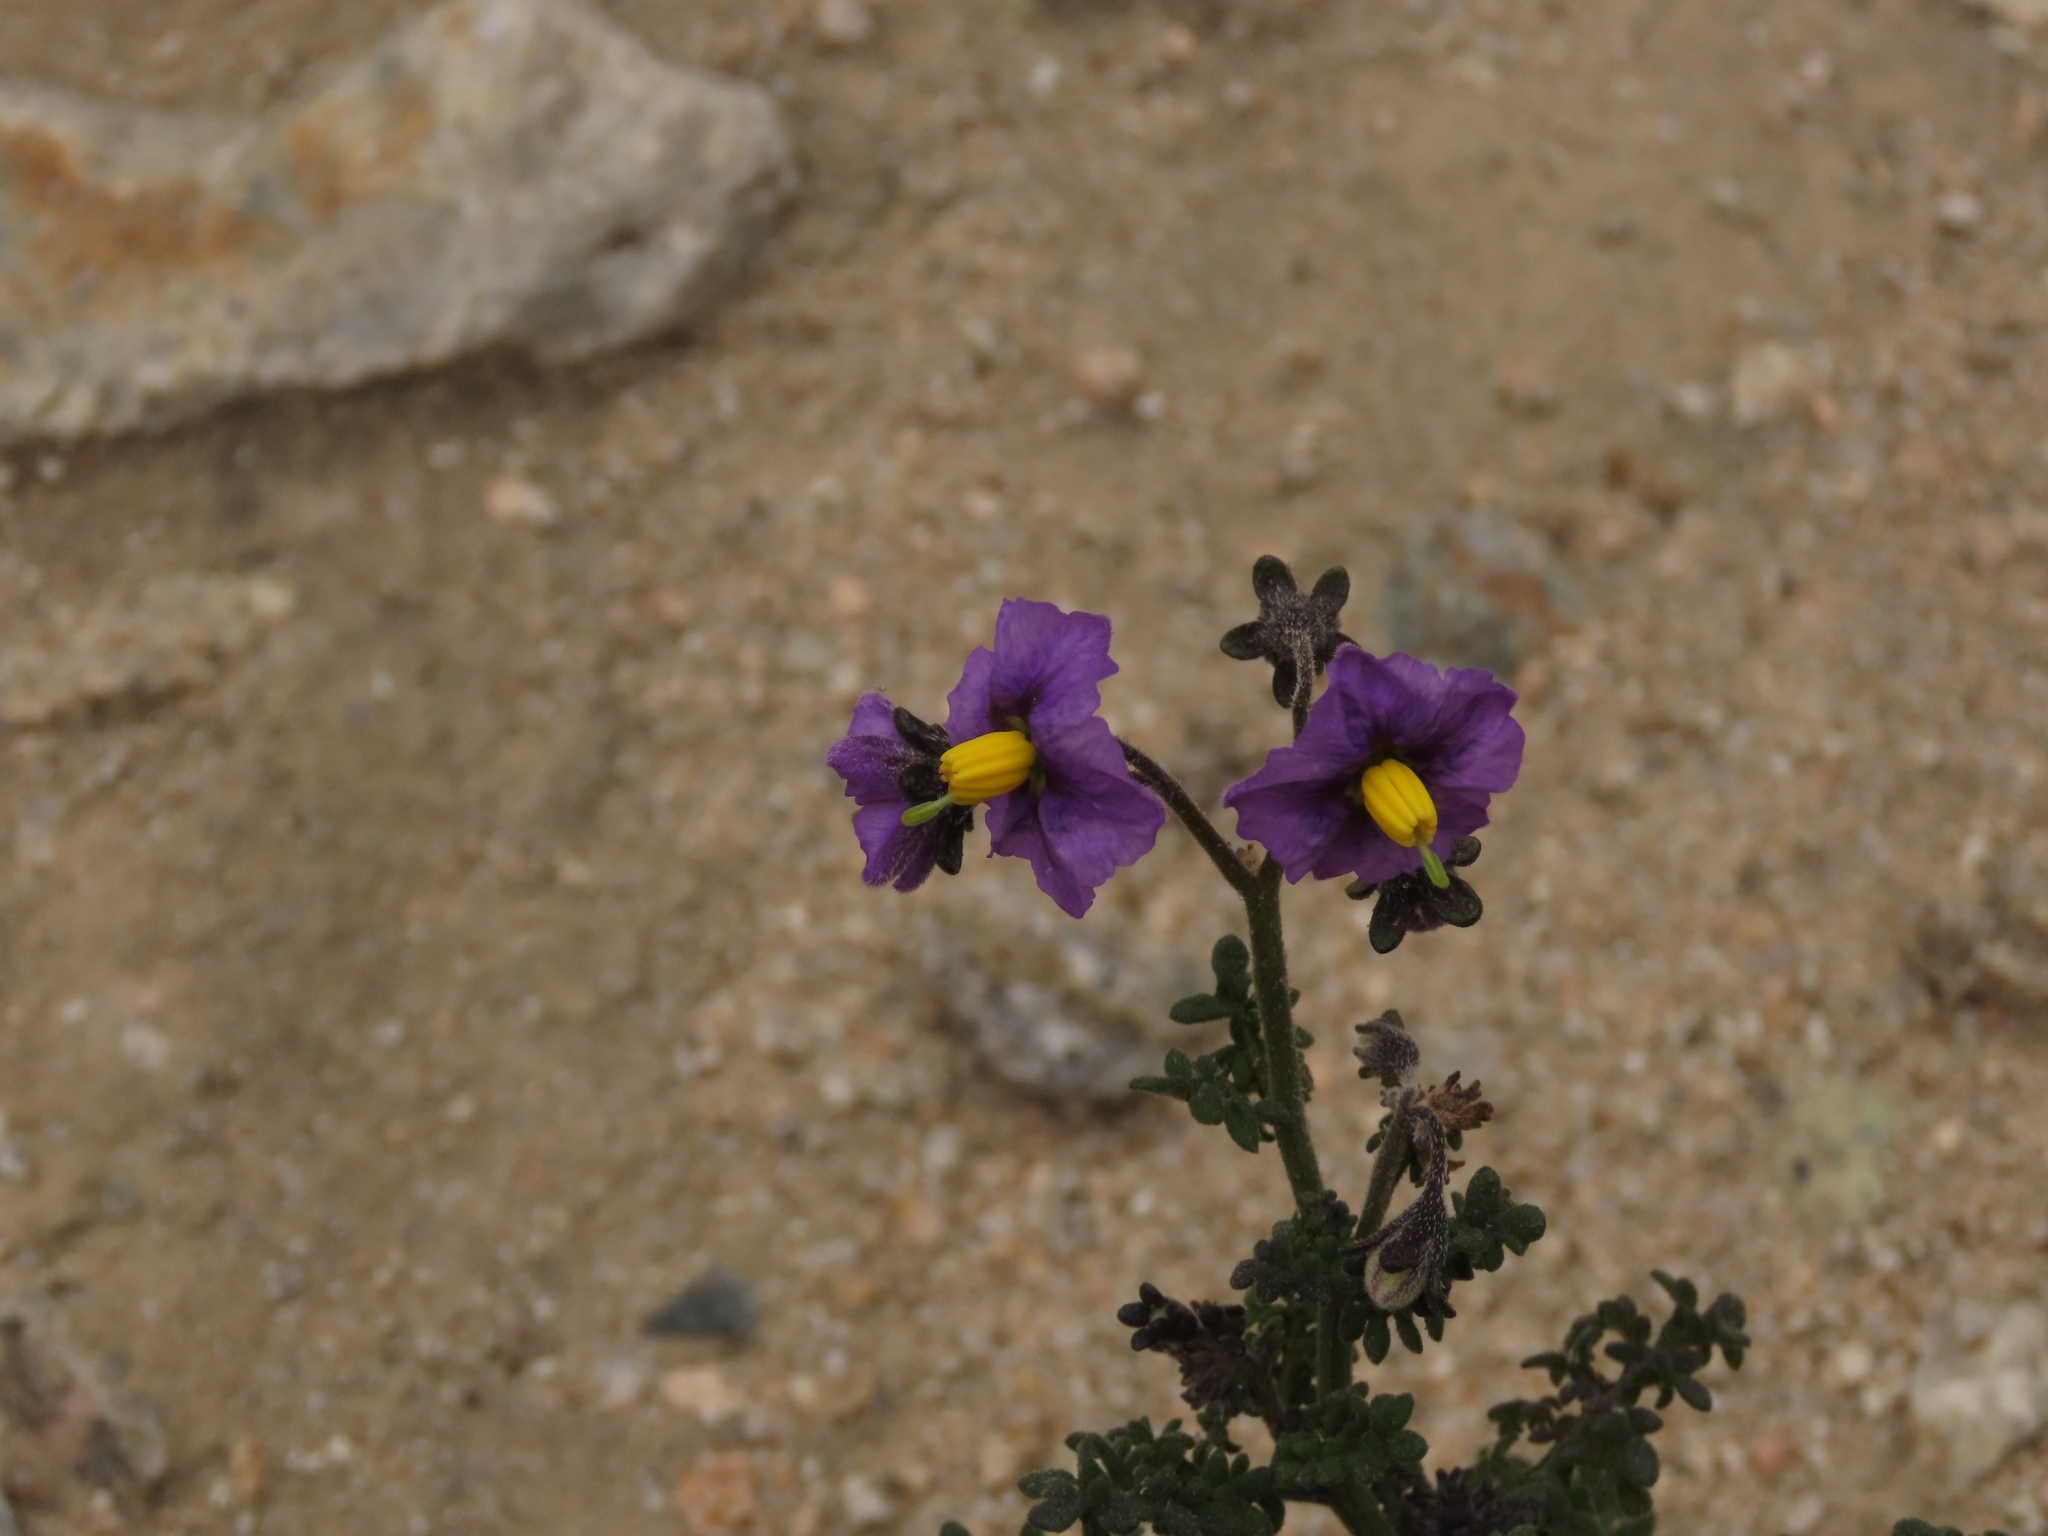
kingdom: Plantae
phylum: Tracheophyta
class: Magnoliopsida
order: Solanales
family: Solanaceae
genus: Solanum
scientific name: Solanum remyanum
